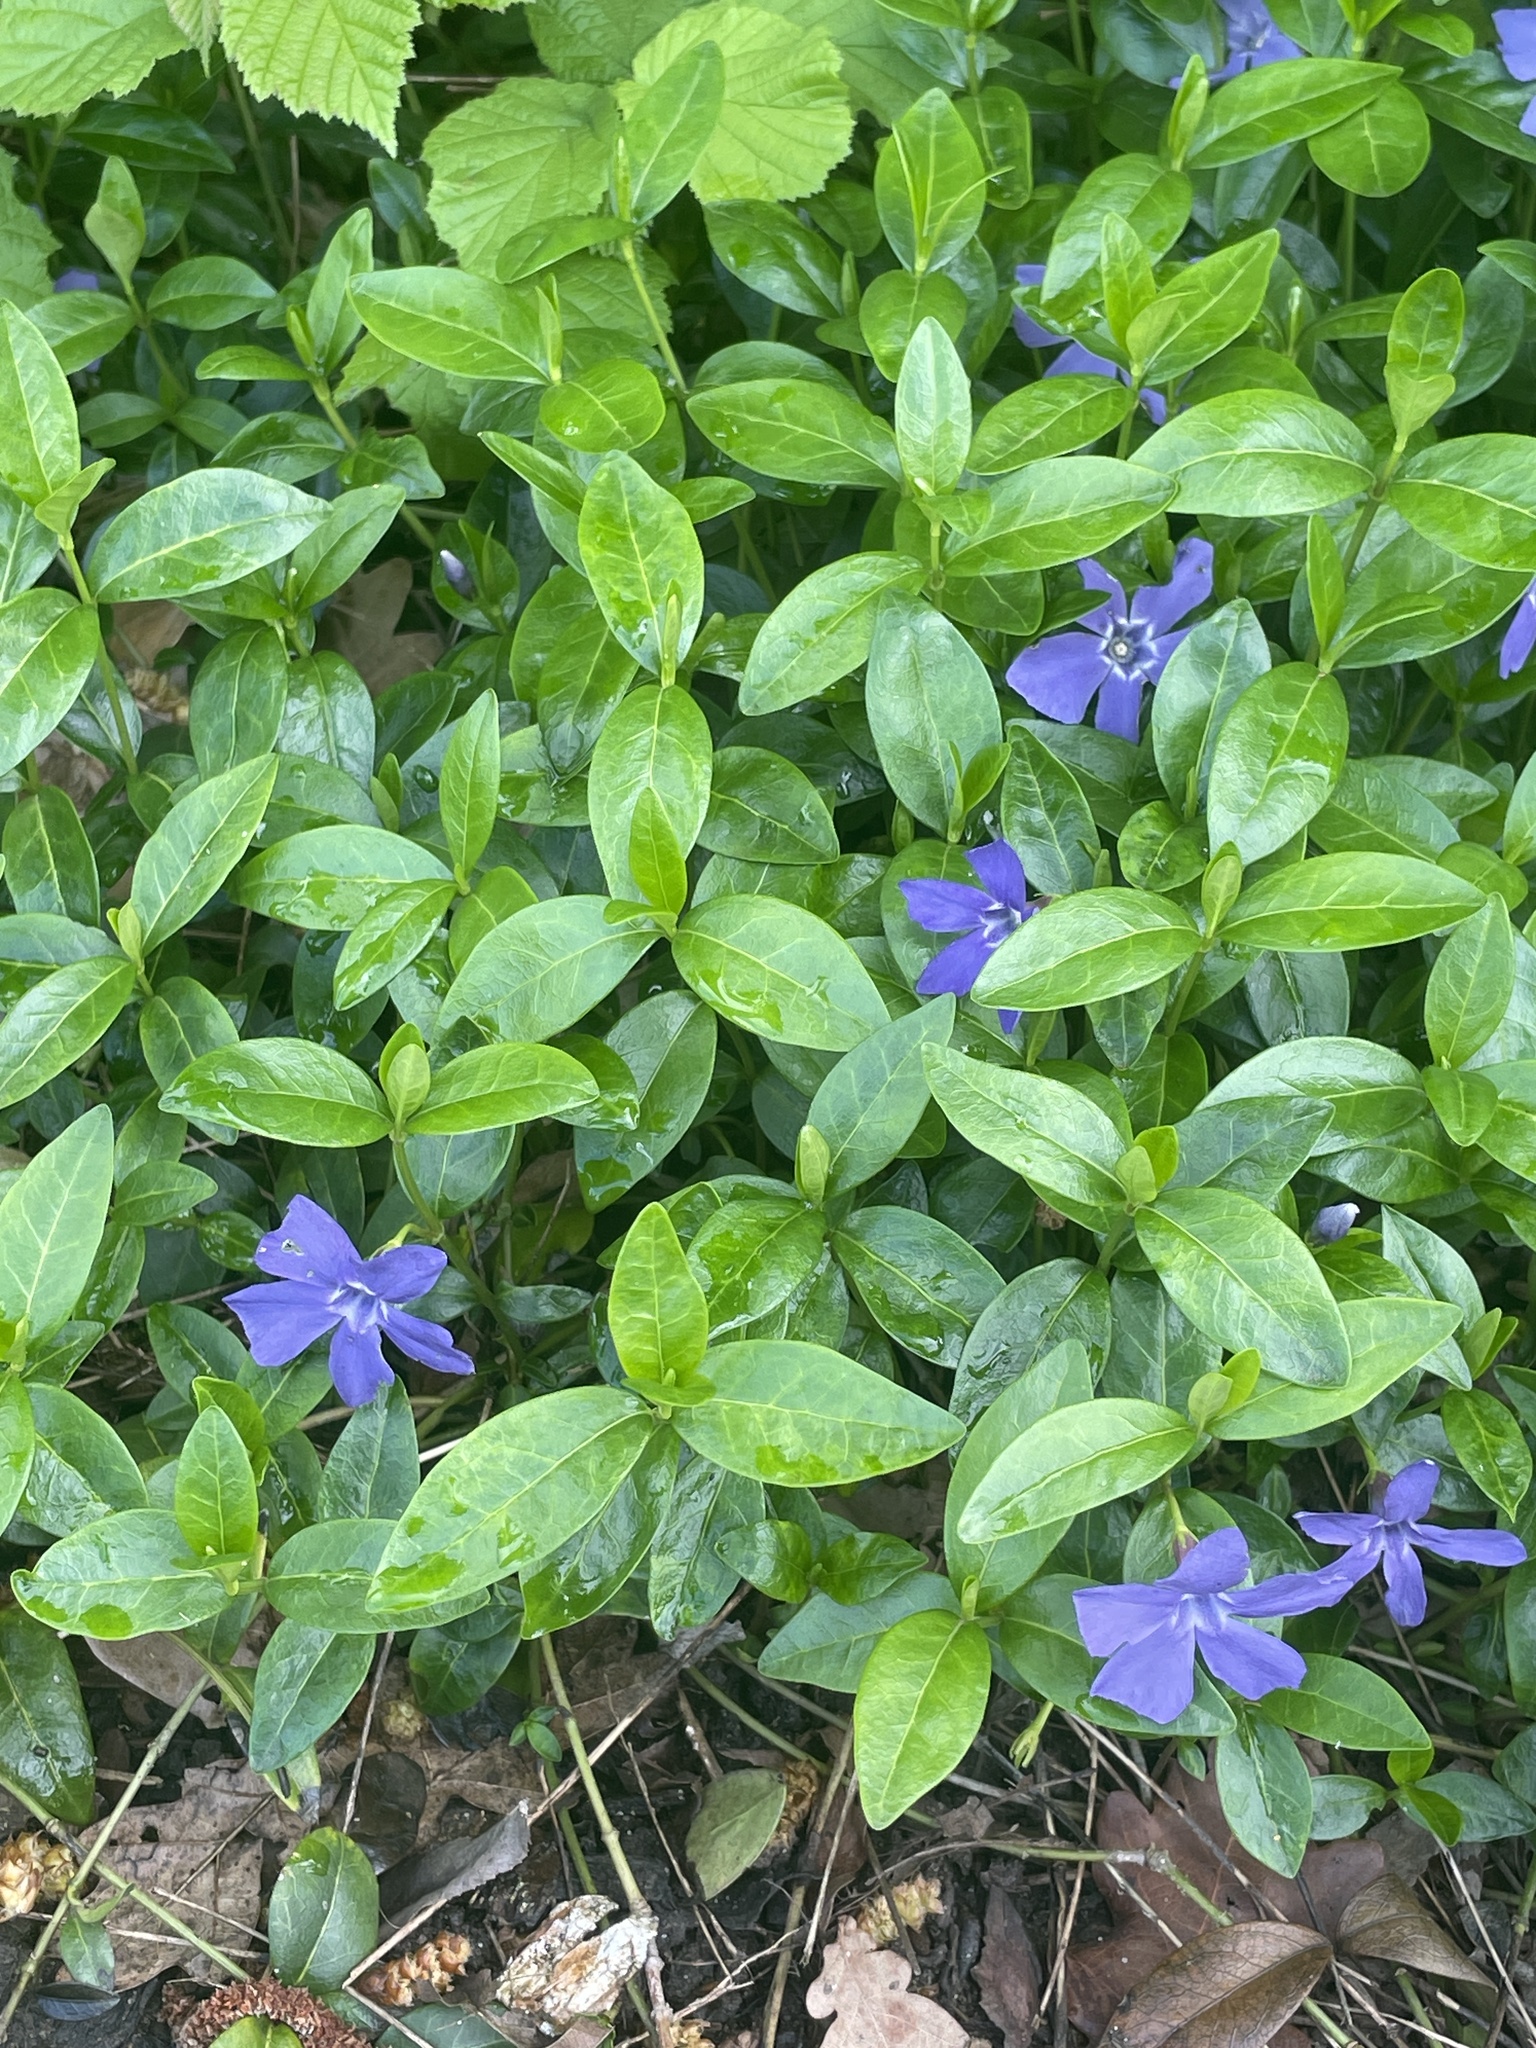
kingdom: Plantae
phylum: Tracheophyta
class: Magnoliopsida
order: Gentianales
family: Apocynaceae
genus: Vinca
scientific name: Vinca minor
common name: Lesser periwinkle
